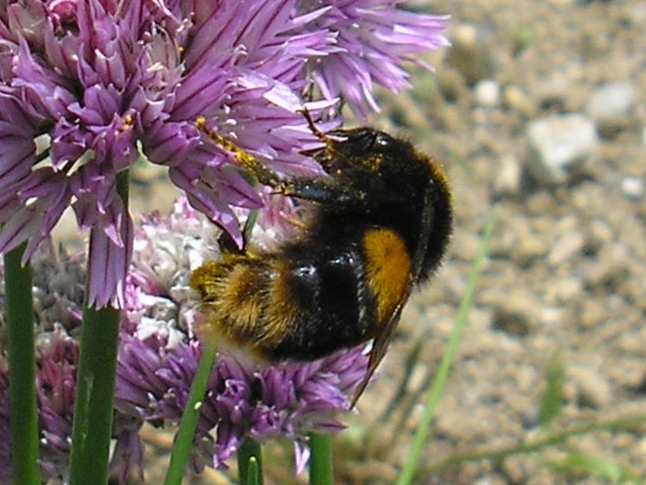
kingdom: Animalia
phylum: Arthropoda
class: Insecta
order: Hymenoptera
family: Apidae
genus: Bombus
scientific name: Bombus terrestris
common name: Buff-tailed bumblebee
